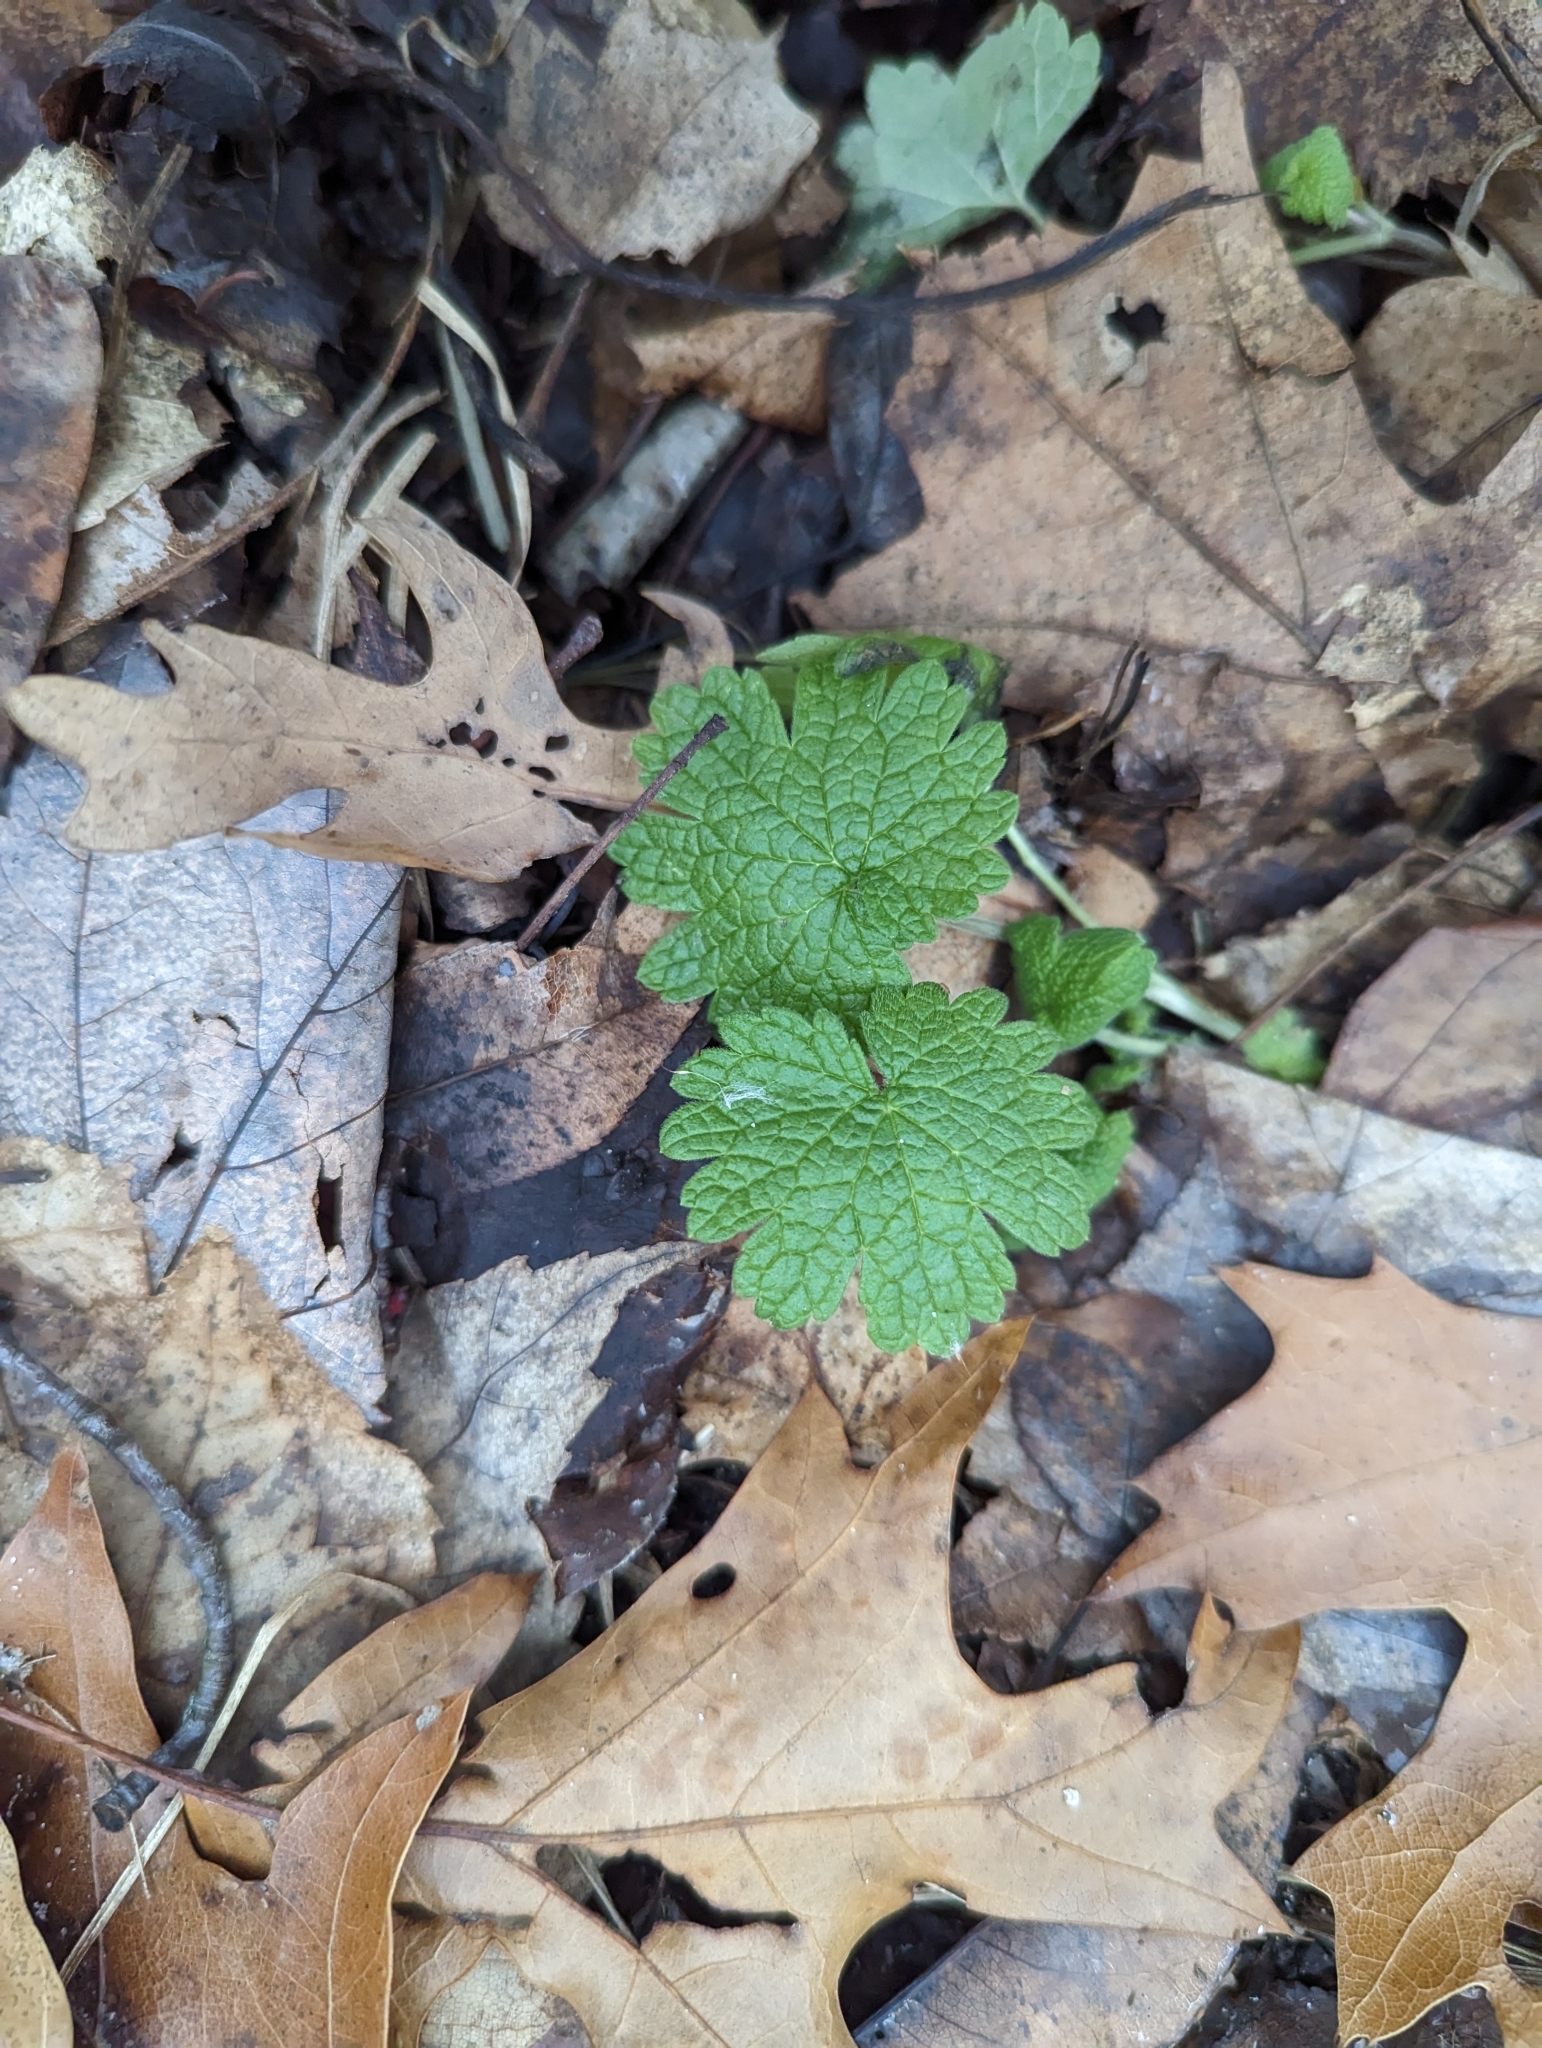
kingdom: Plantae
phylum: Tracheophyta
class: Magnoliopsida
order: Lamiales
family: Lamiaceae
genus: Leonurus
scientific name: Leonurus cardiaca
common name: Motherwort
